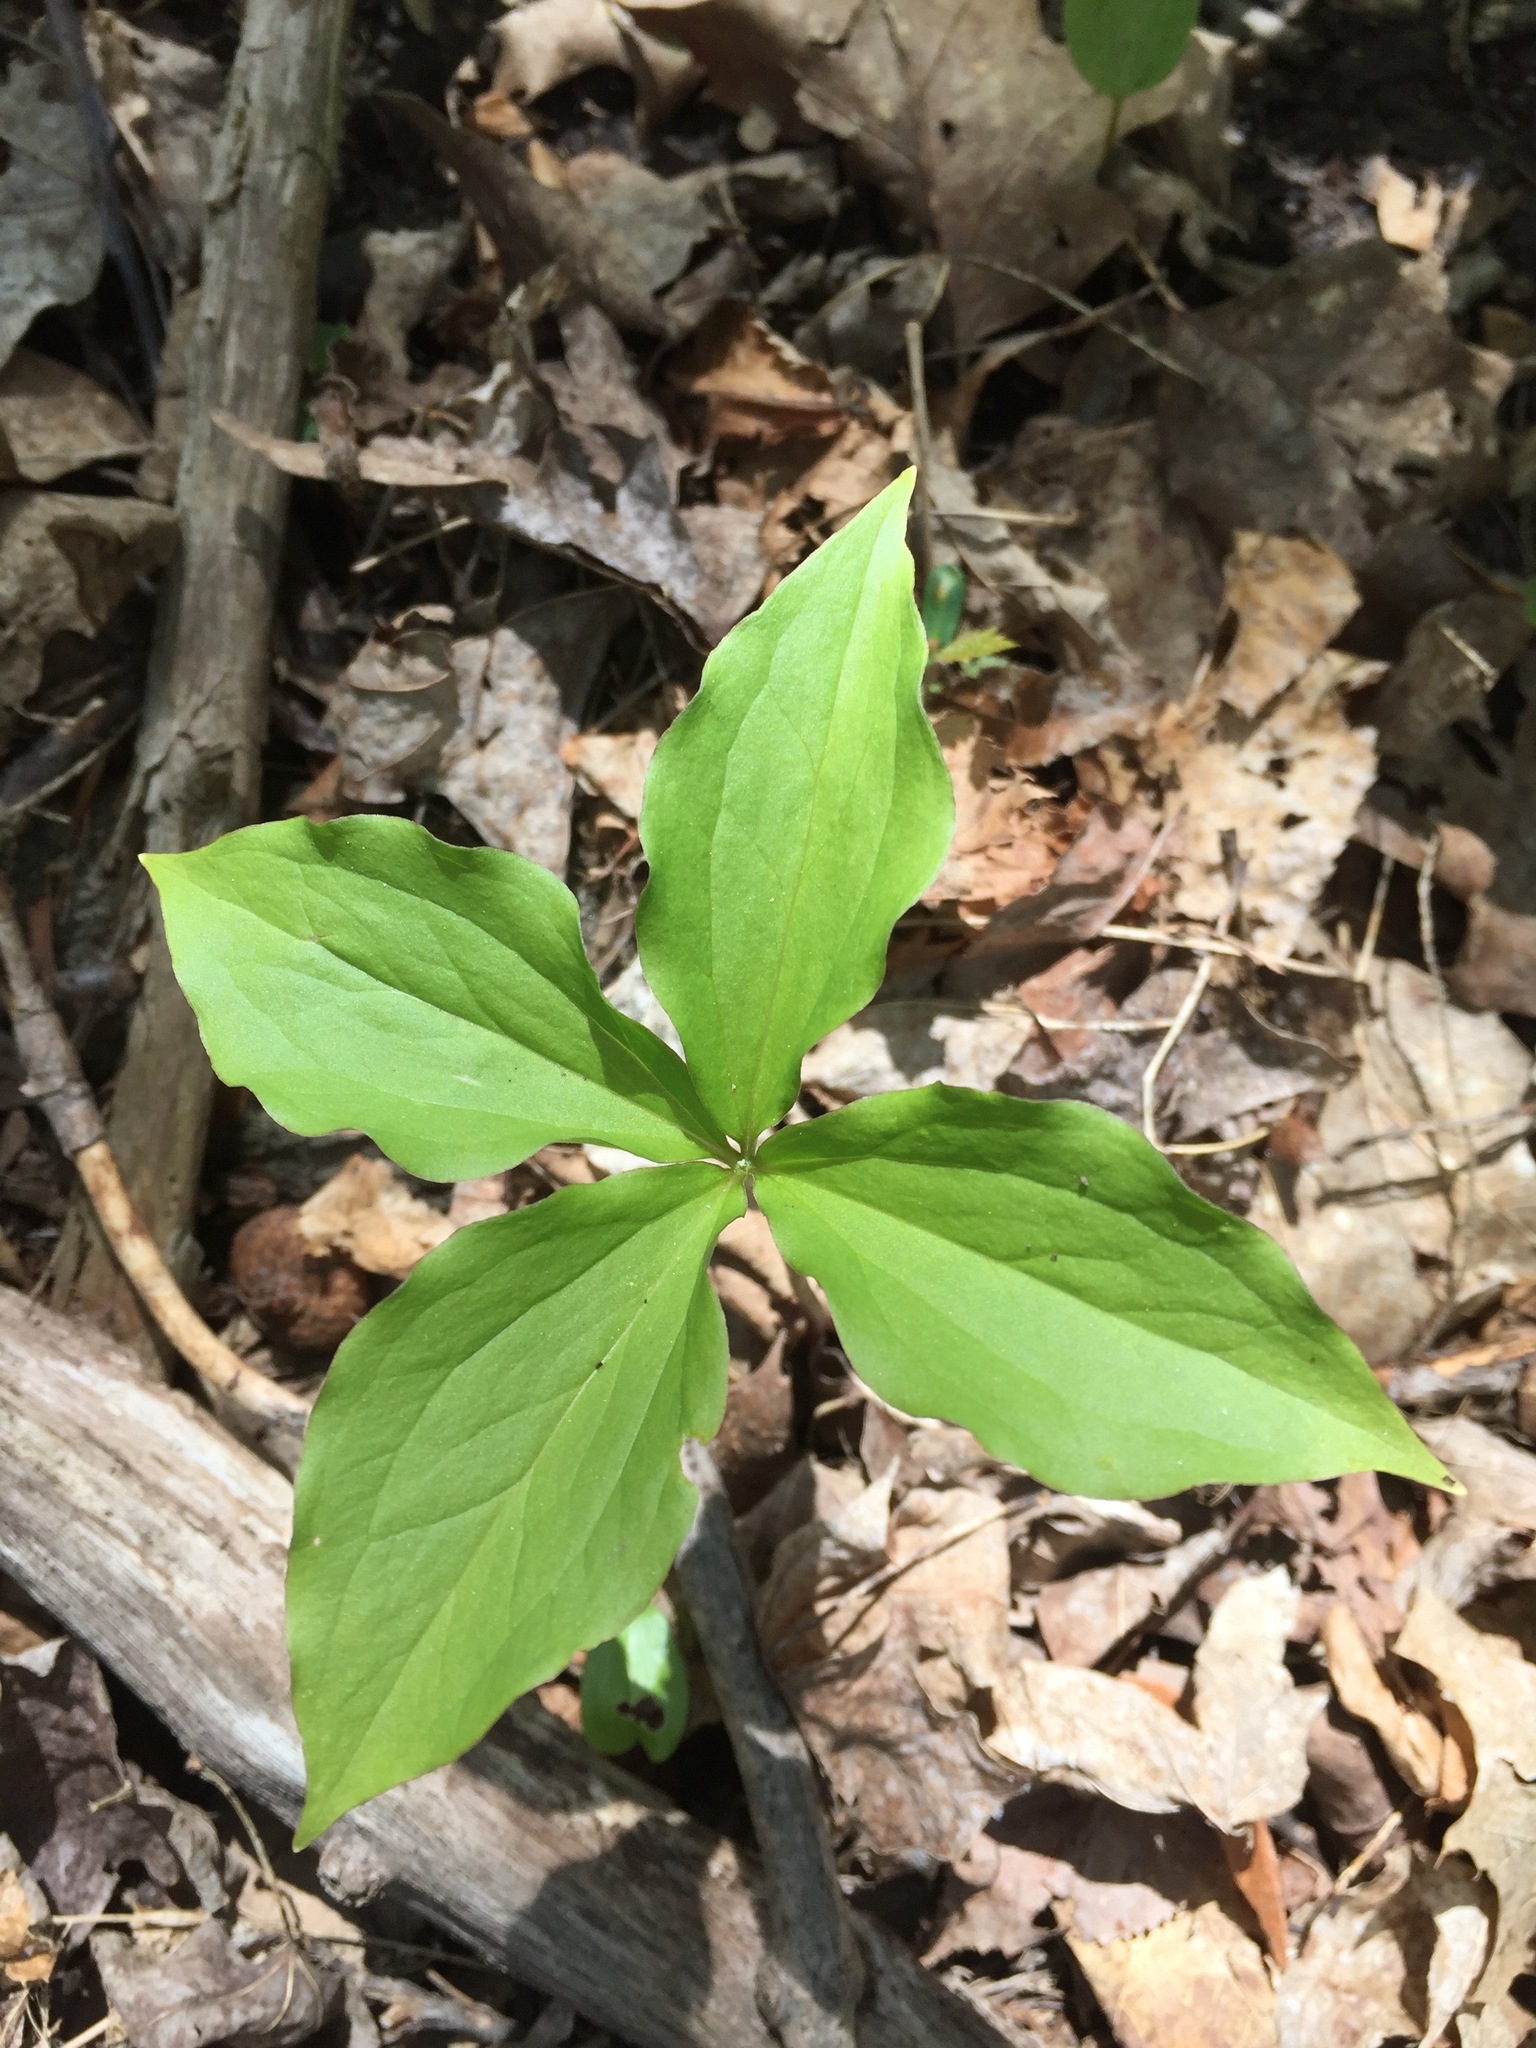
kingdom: Plantae
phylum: Tracheophyta
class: Liliopsida
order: Liliales
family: Melanthiaceae
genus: Trillium
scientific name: Trillium grandiflorum
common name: Great white trillium
